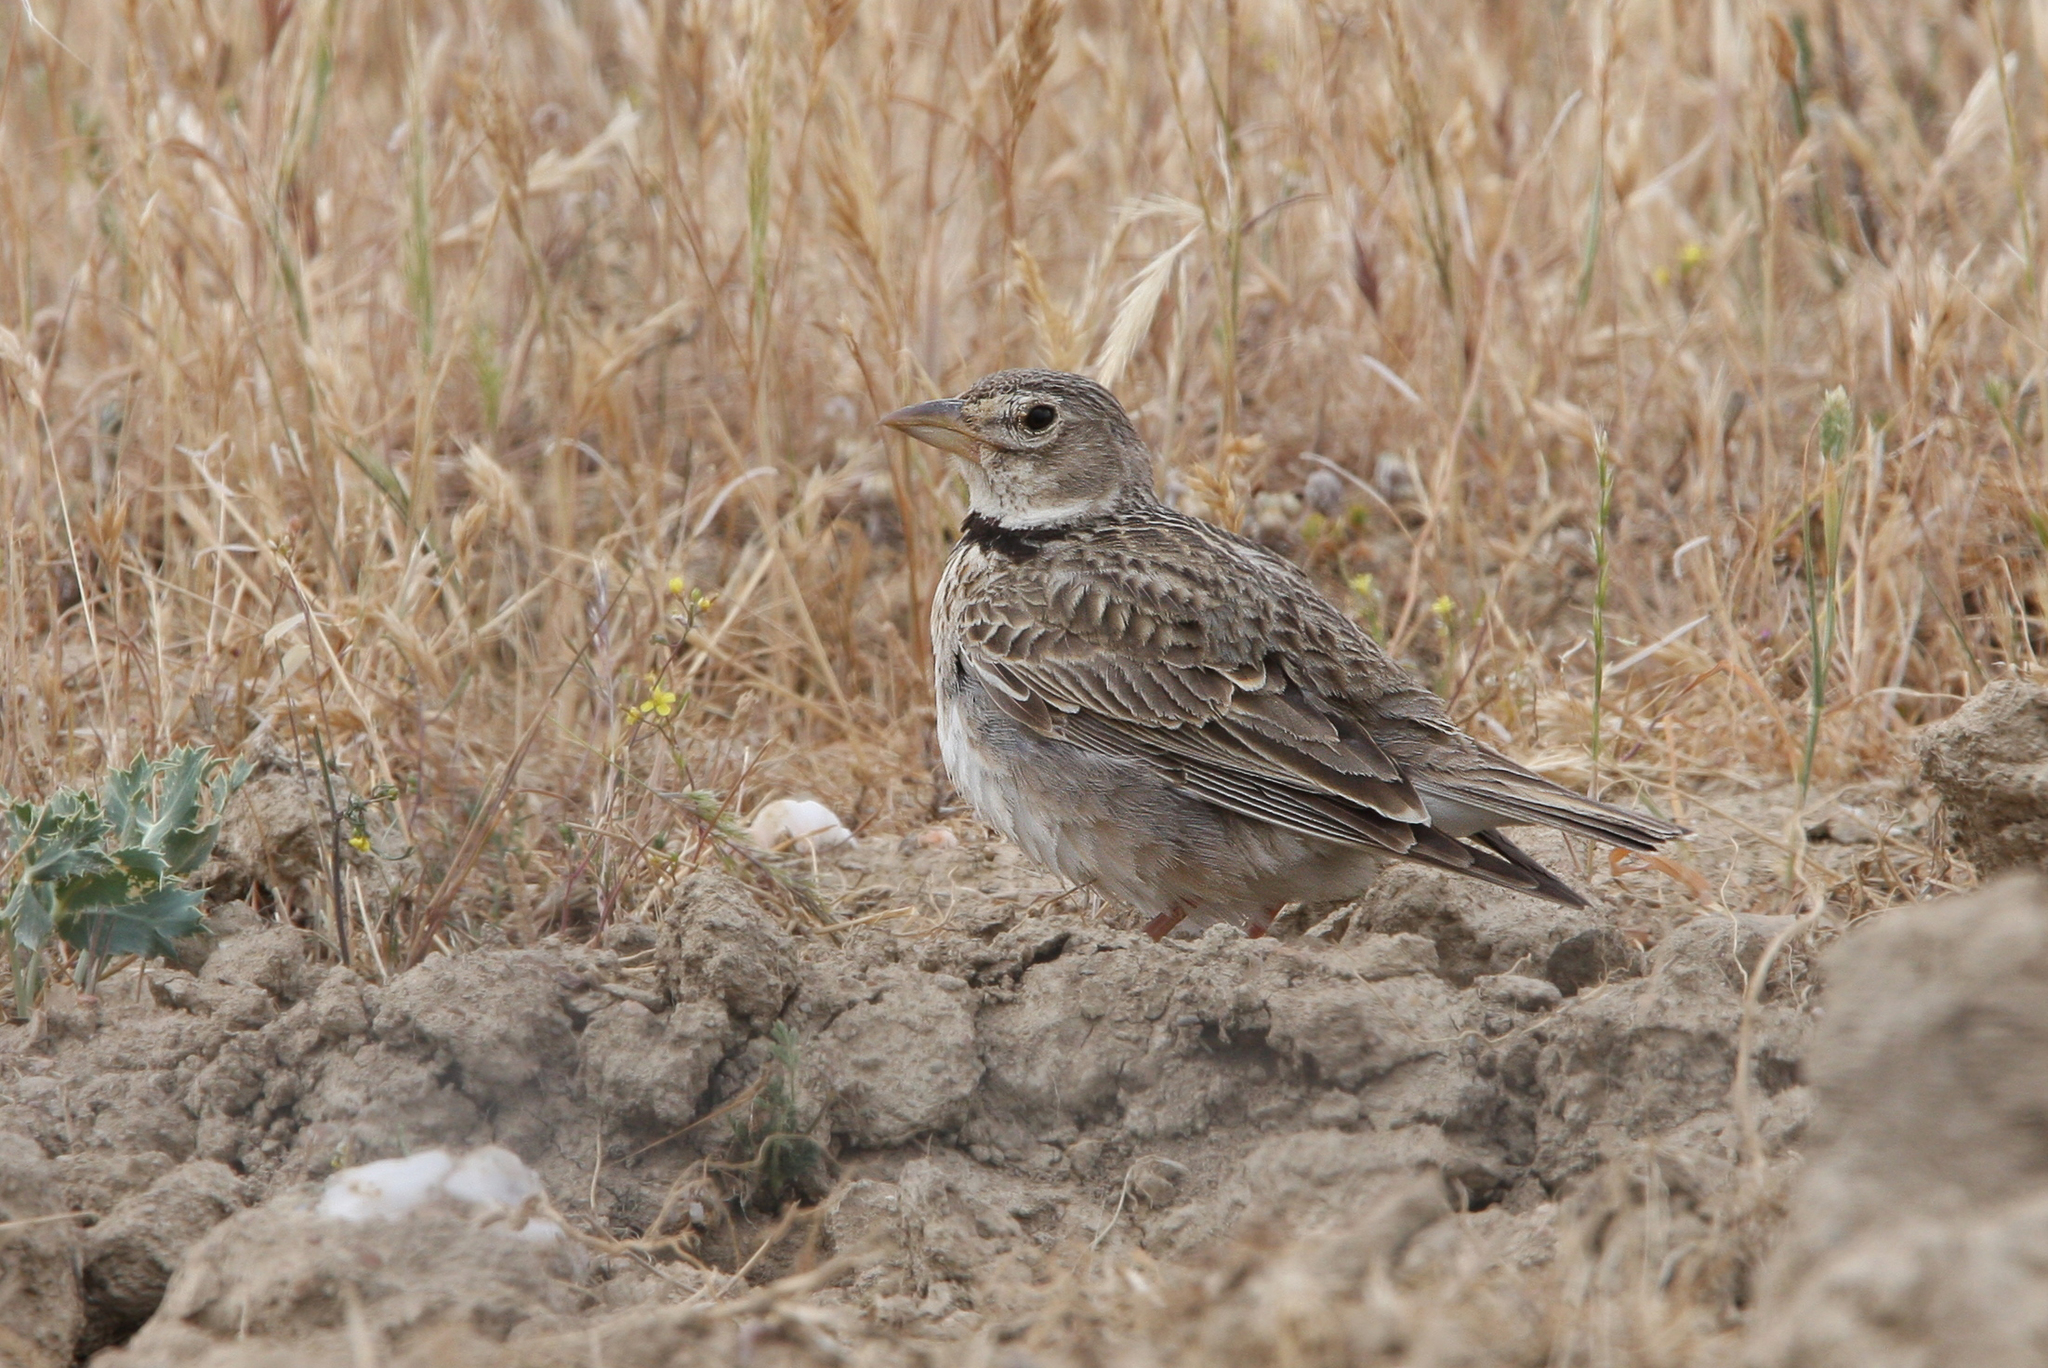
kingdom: Animalia
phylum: Chordata
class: Aves
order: Passeriformes
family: Alaudidae
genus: Melanocorypha
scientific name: Melanocorypha calandra
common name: Calandra lark
